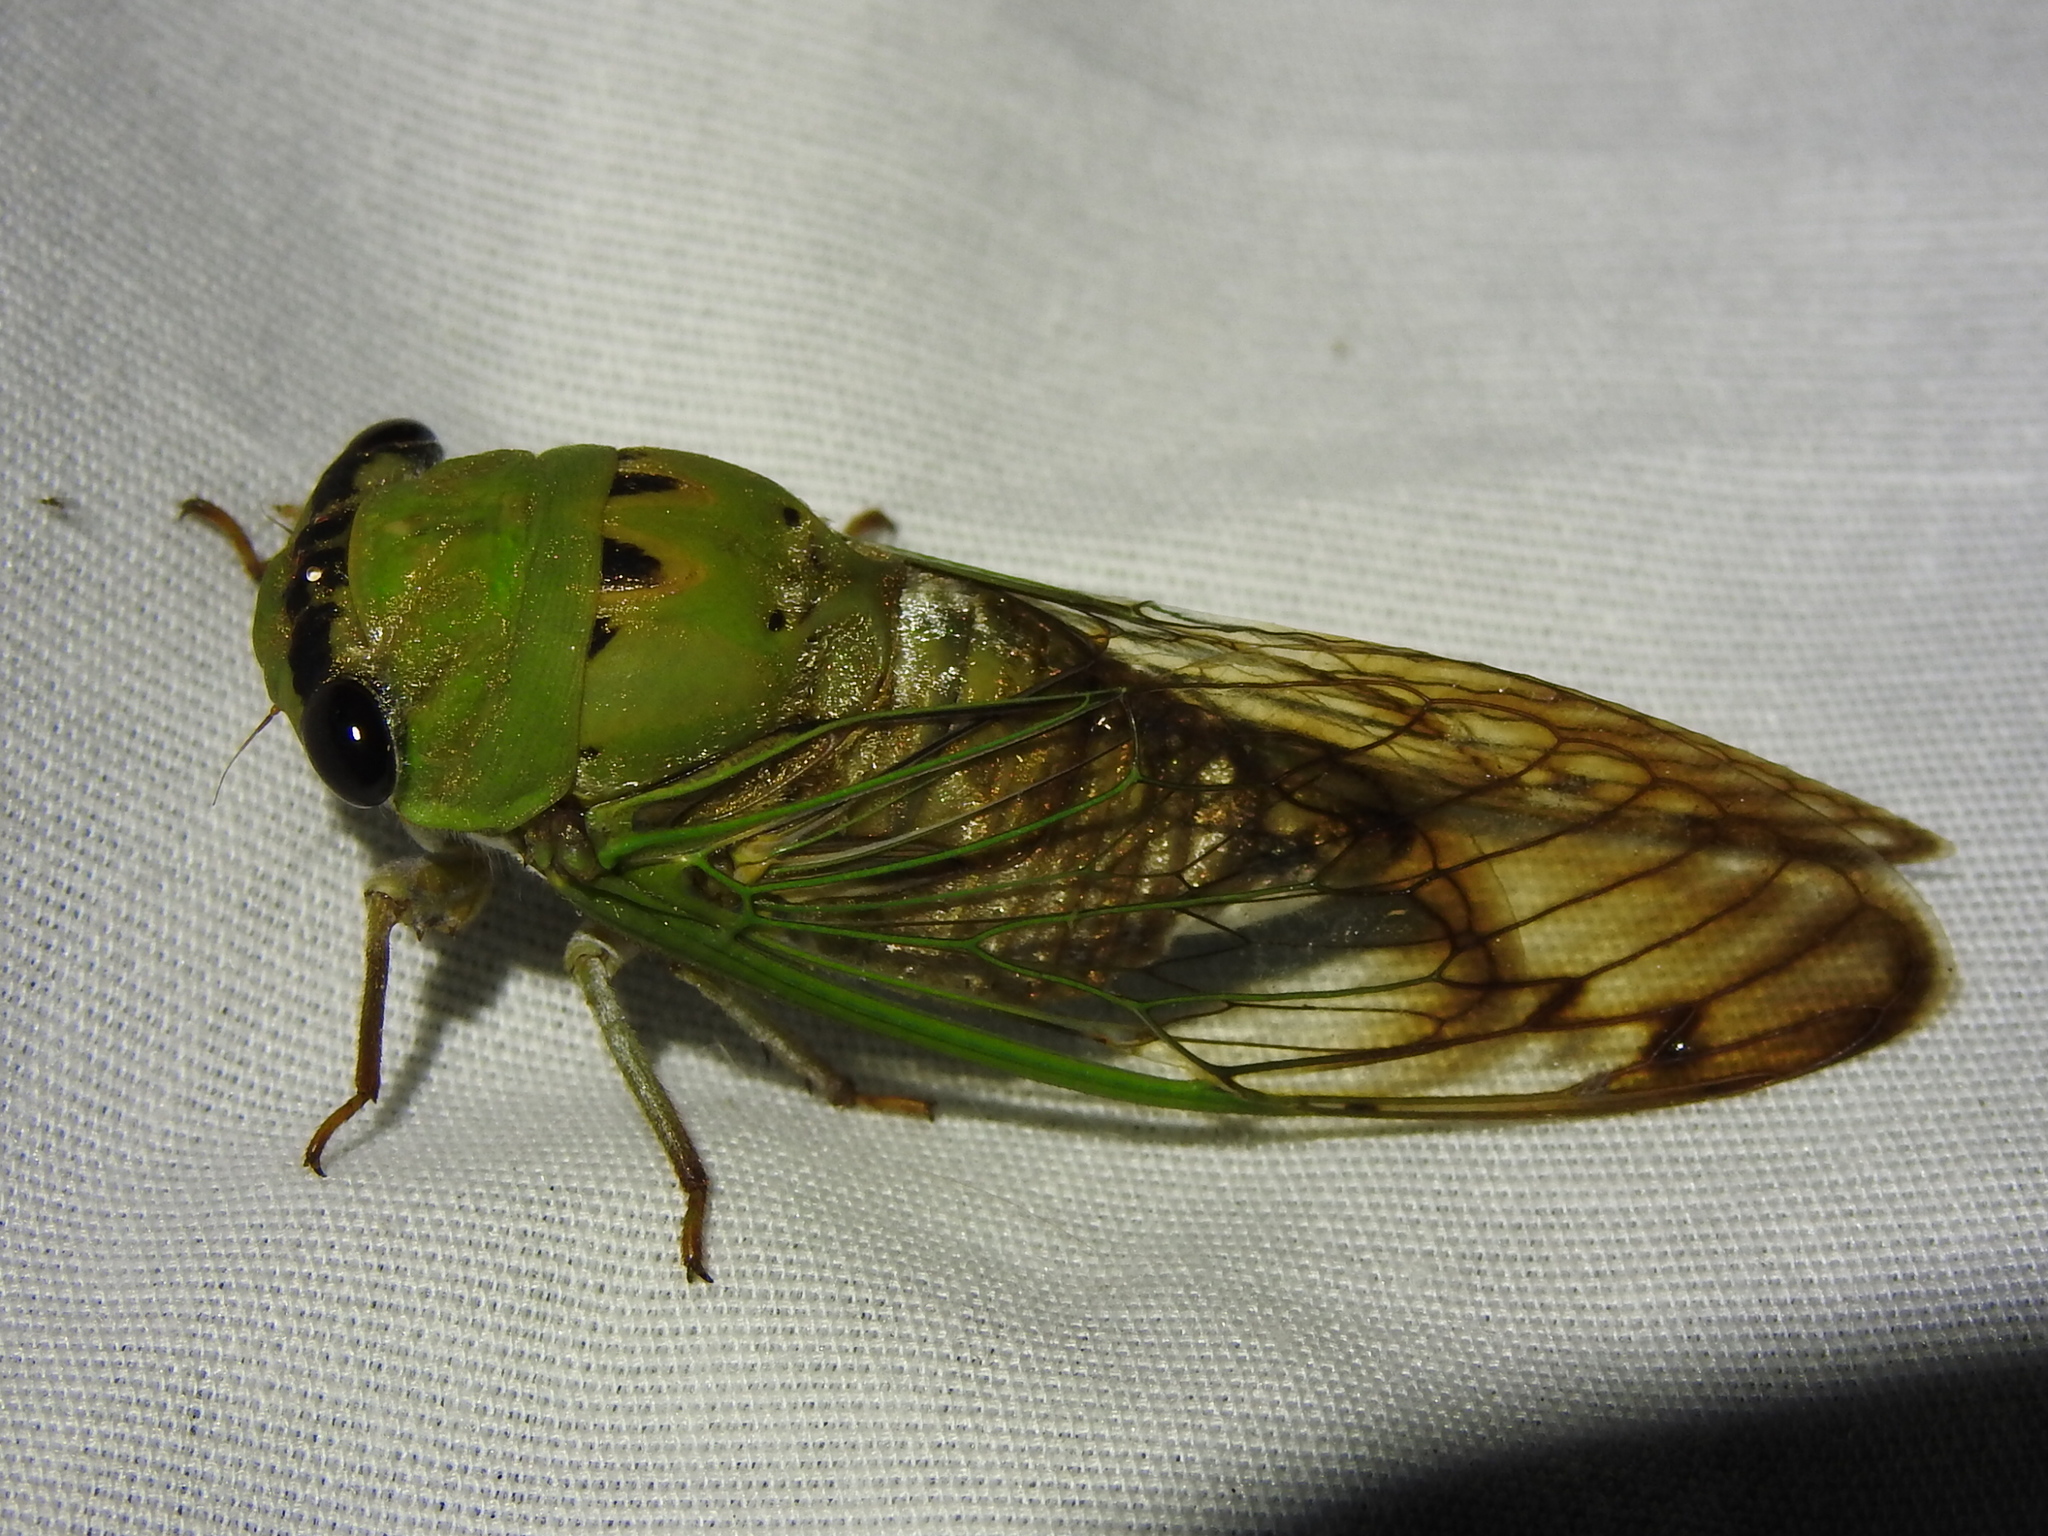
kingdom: Animalia
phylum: Arthropoda
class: Insecta
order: Hemiptera
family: Cicadidae
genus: Neotibicen
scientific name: Neotibicen superbus
